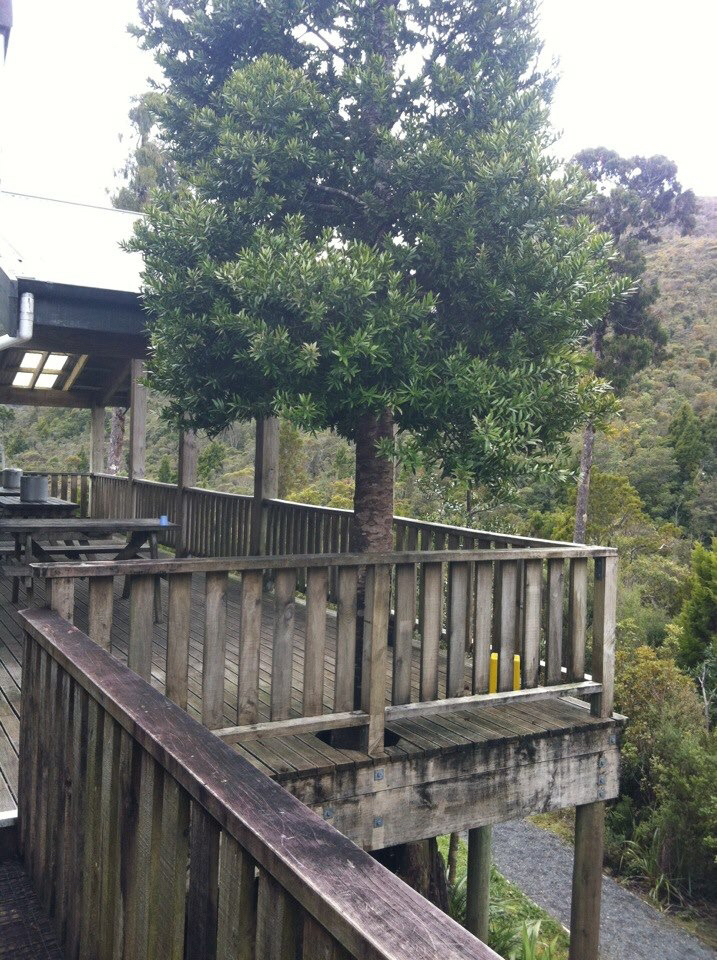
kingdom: Plantae
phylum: Tracheophyta
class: Pinopsida
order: Pinales
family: Araucariaceae
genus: Agathis
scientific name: Agathis australis
